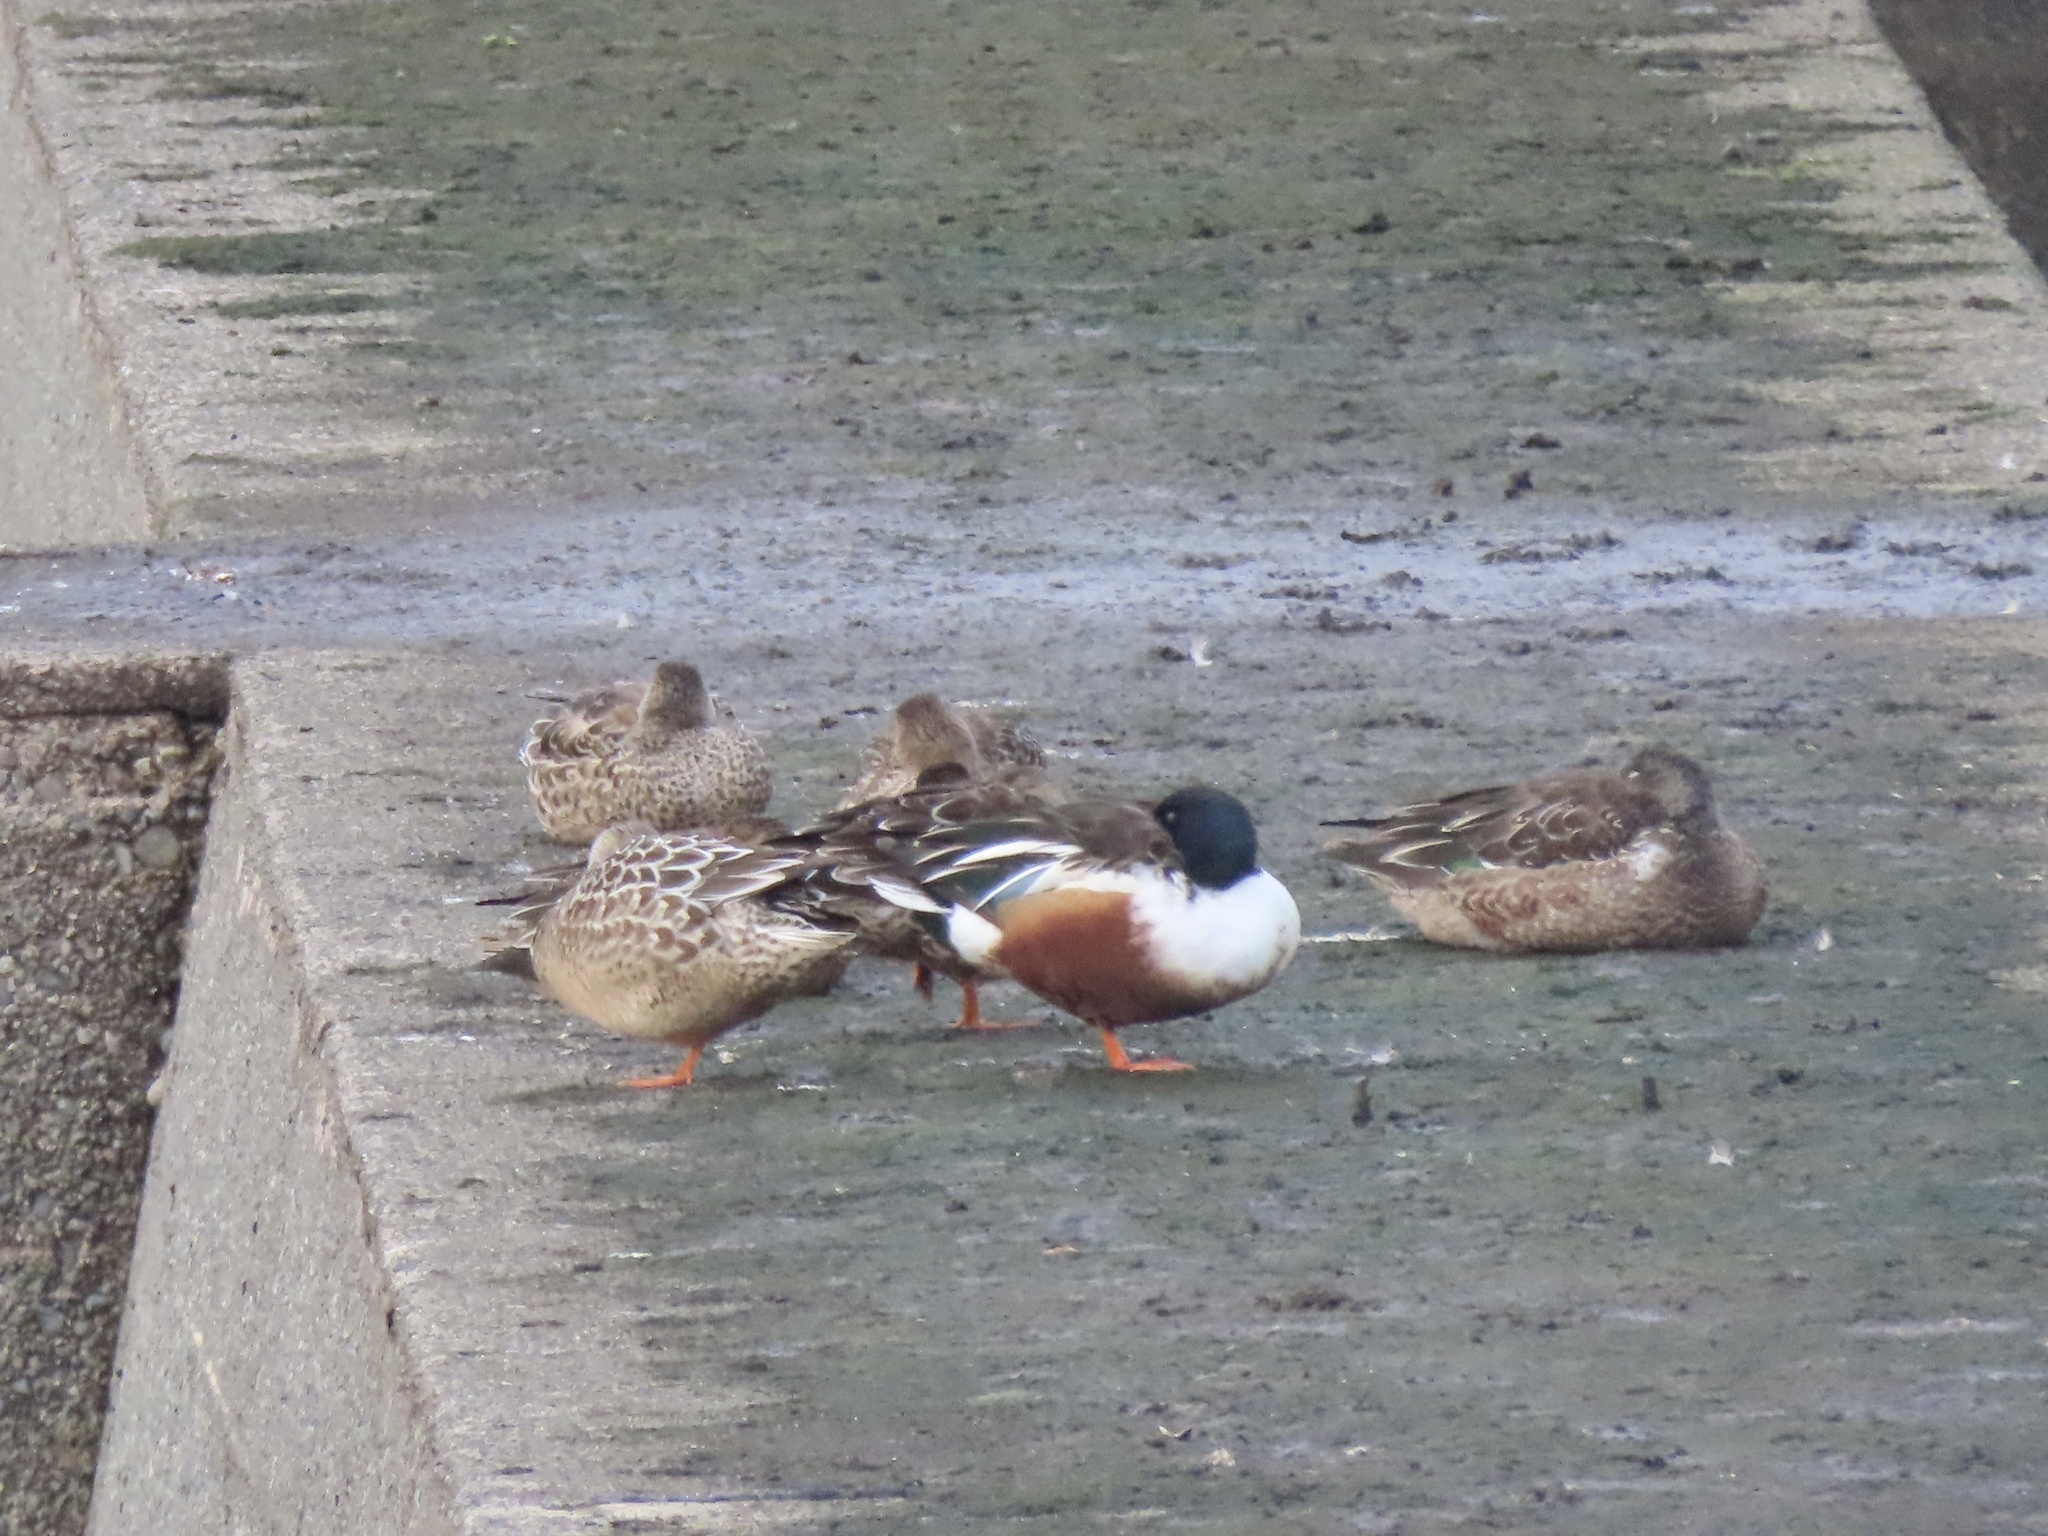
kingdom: Animalia
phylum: Chordata
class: Aves
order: Anseriformes
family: Anatidae
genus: Spatula
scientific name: Spatula clypeata
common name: Northern shoveler
